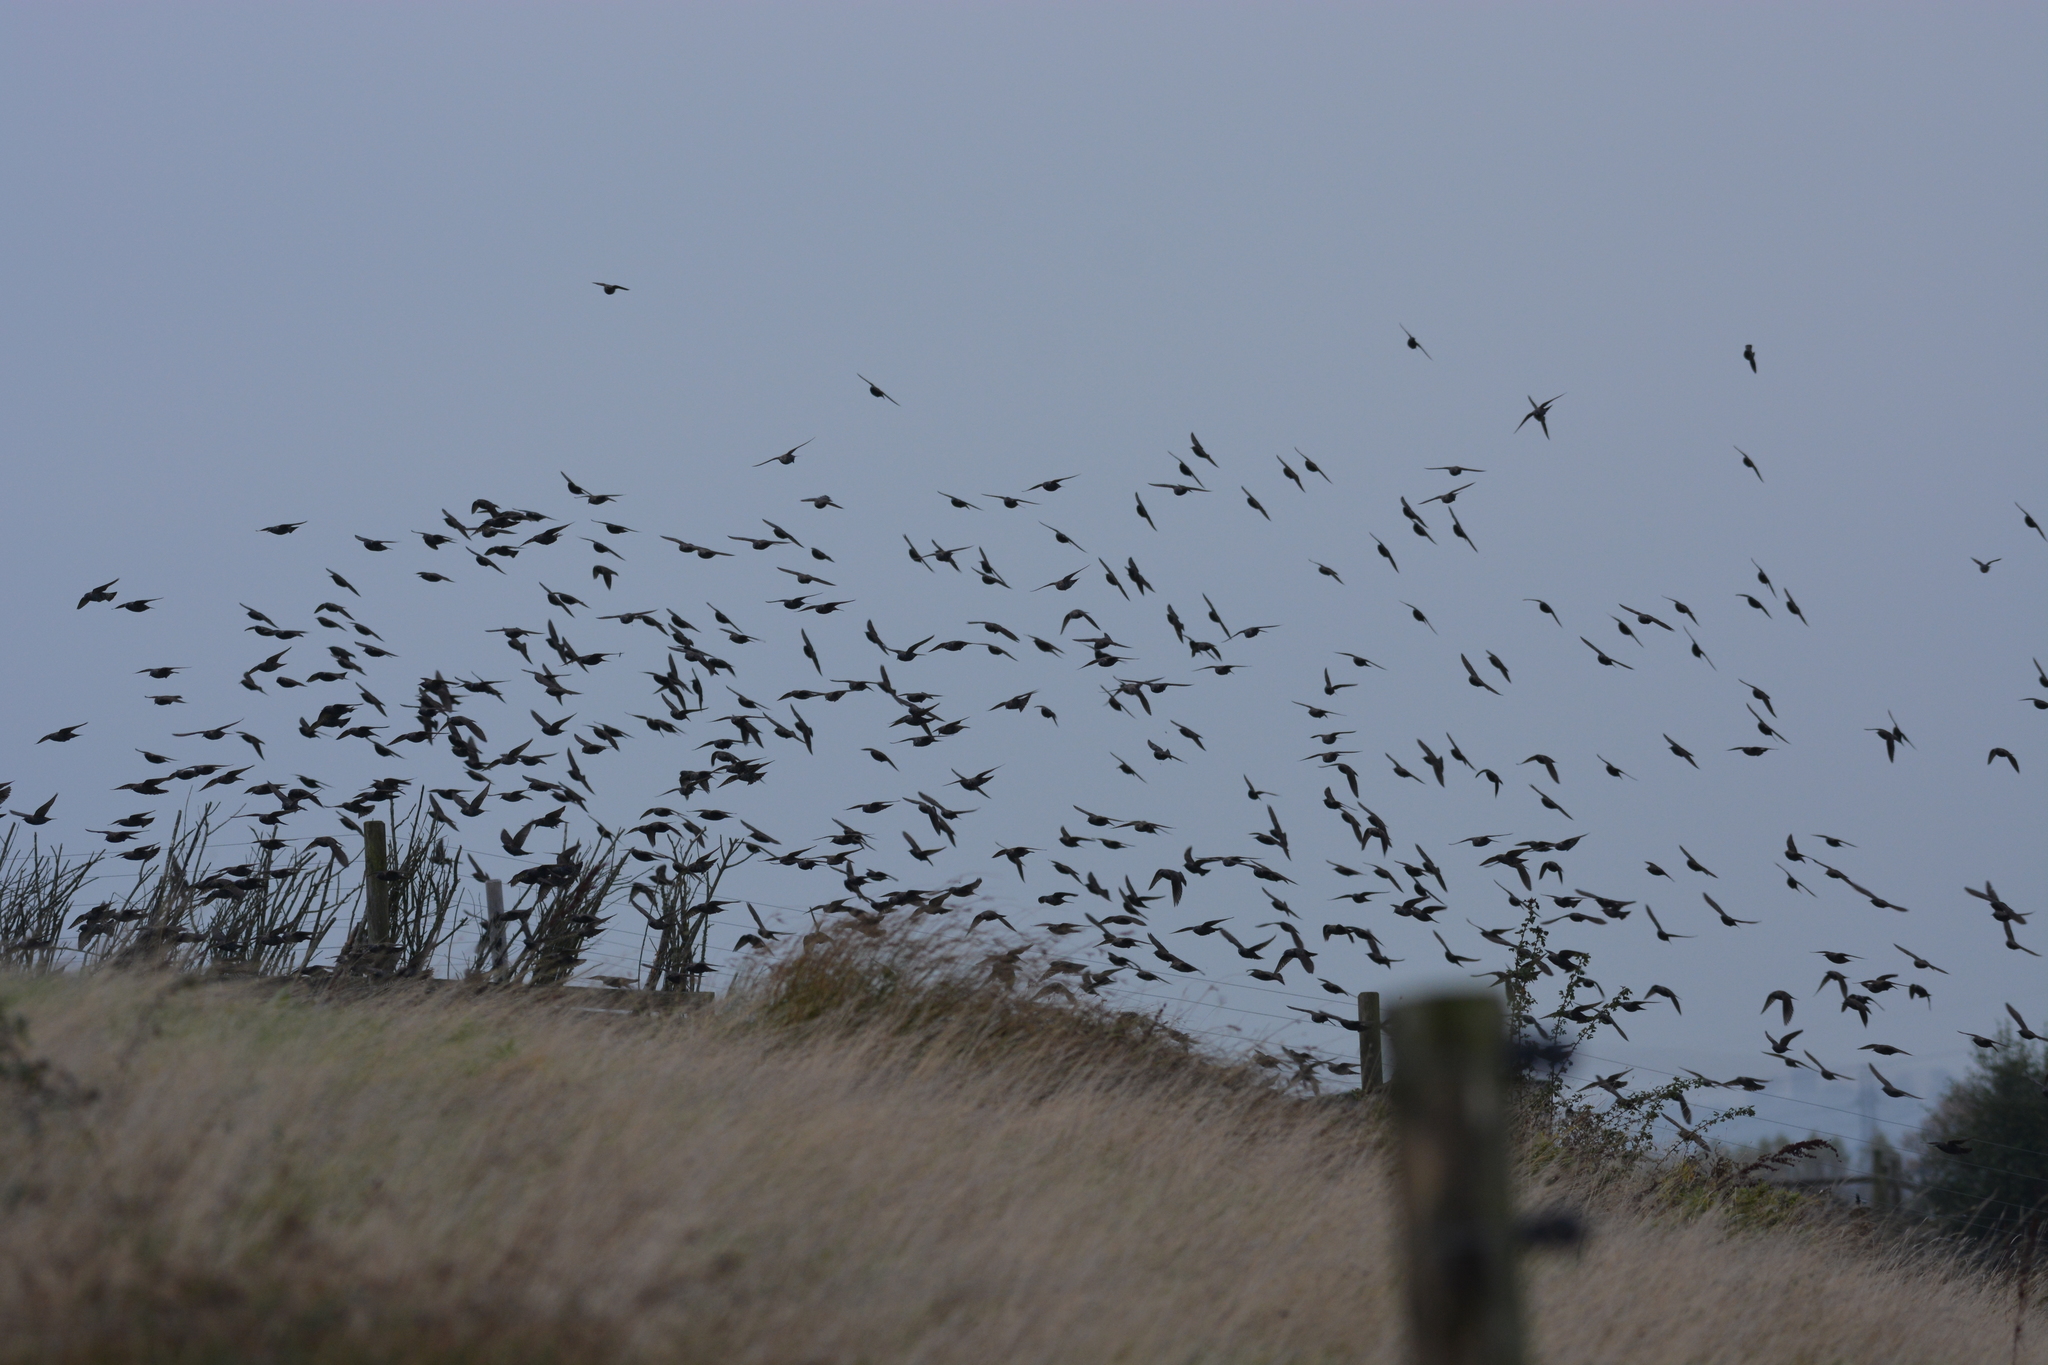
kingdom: Animalia
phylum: Chordata
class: Aves
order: Passeriformes
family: Sturnidae
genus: Sturnus
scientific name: Sturnus vulgaris
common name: Common starling
